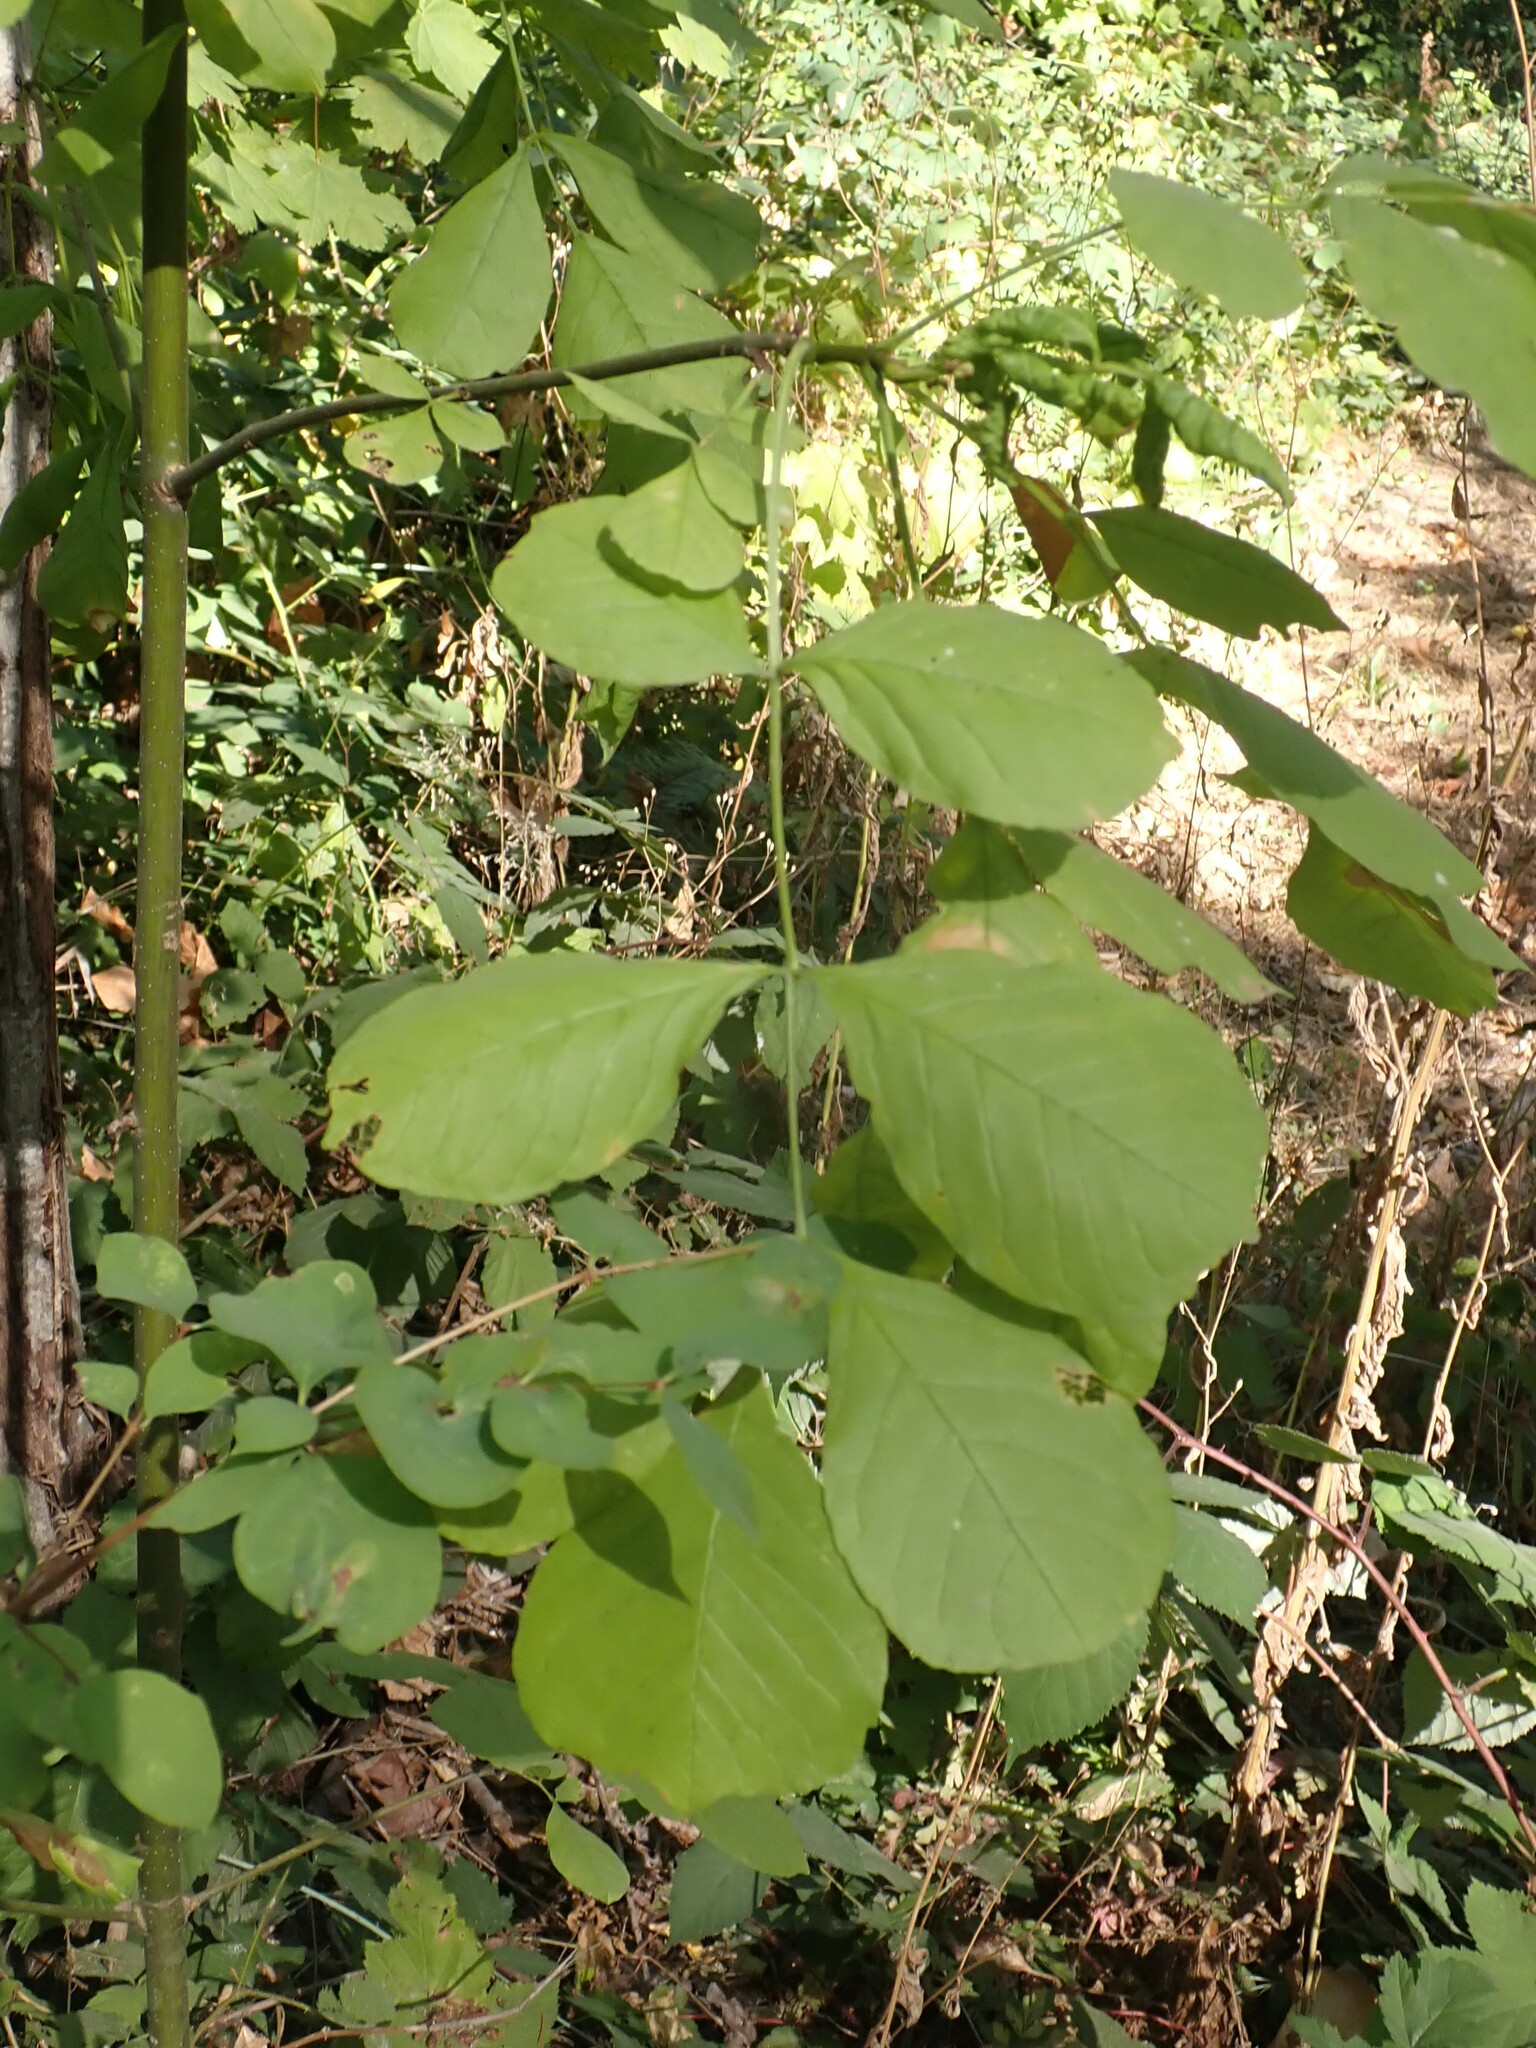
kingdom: Plantae
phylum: Tracheophyta
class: Magnoliopsida
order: Lamiales
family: Oleaceae
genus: Fraxinus
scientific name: Fraxinus latifolia
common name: Oregon ash
